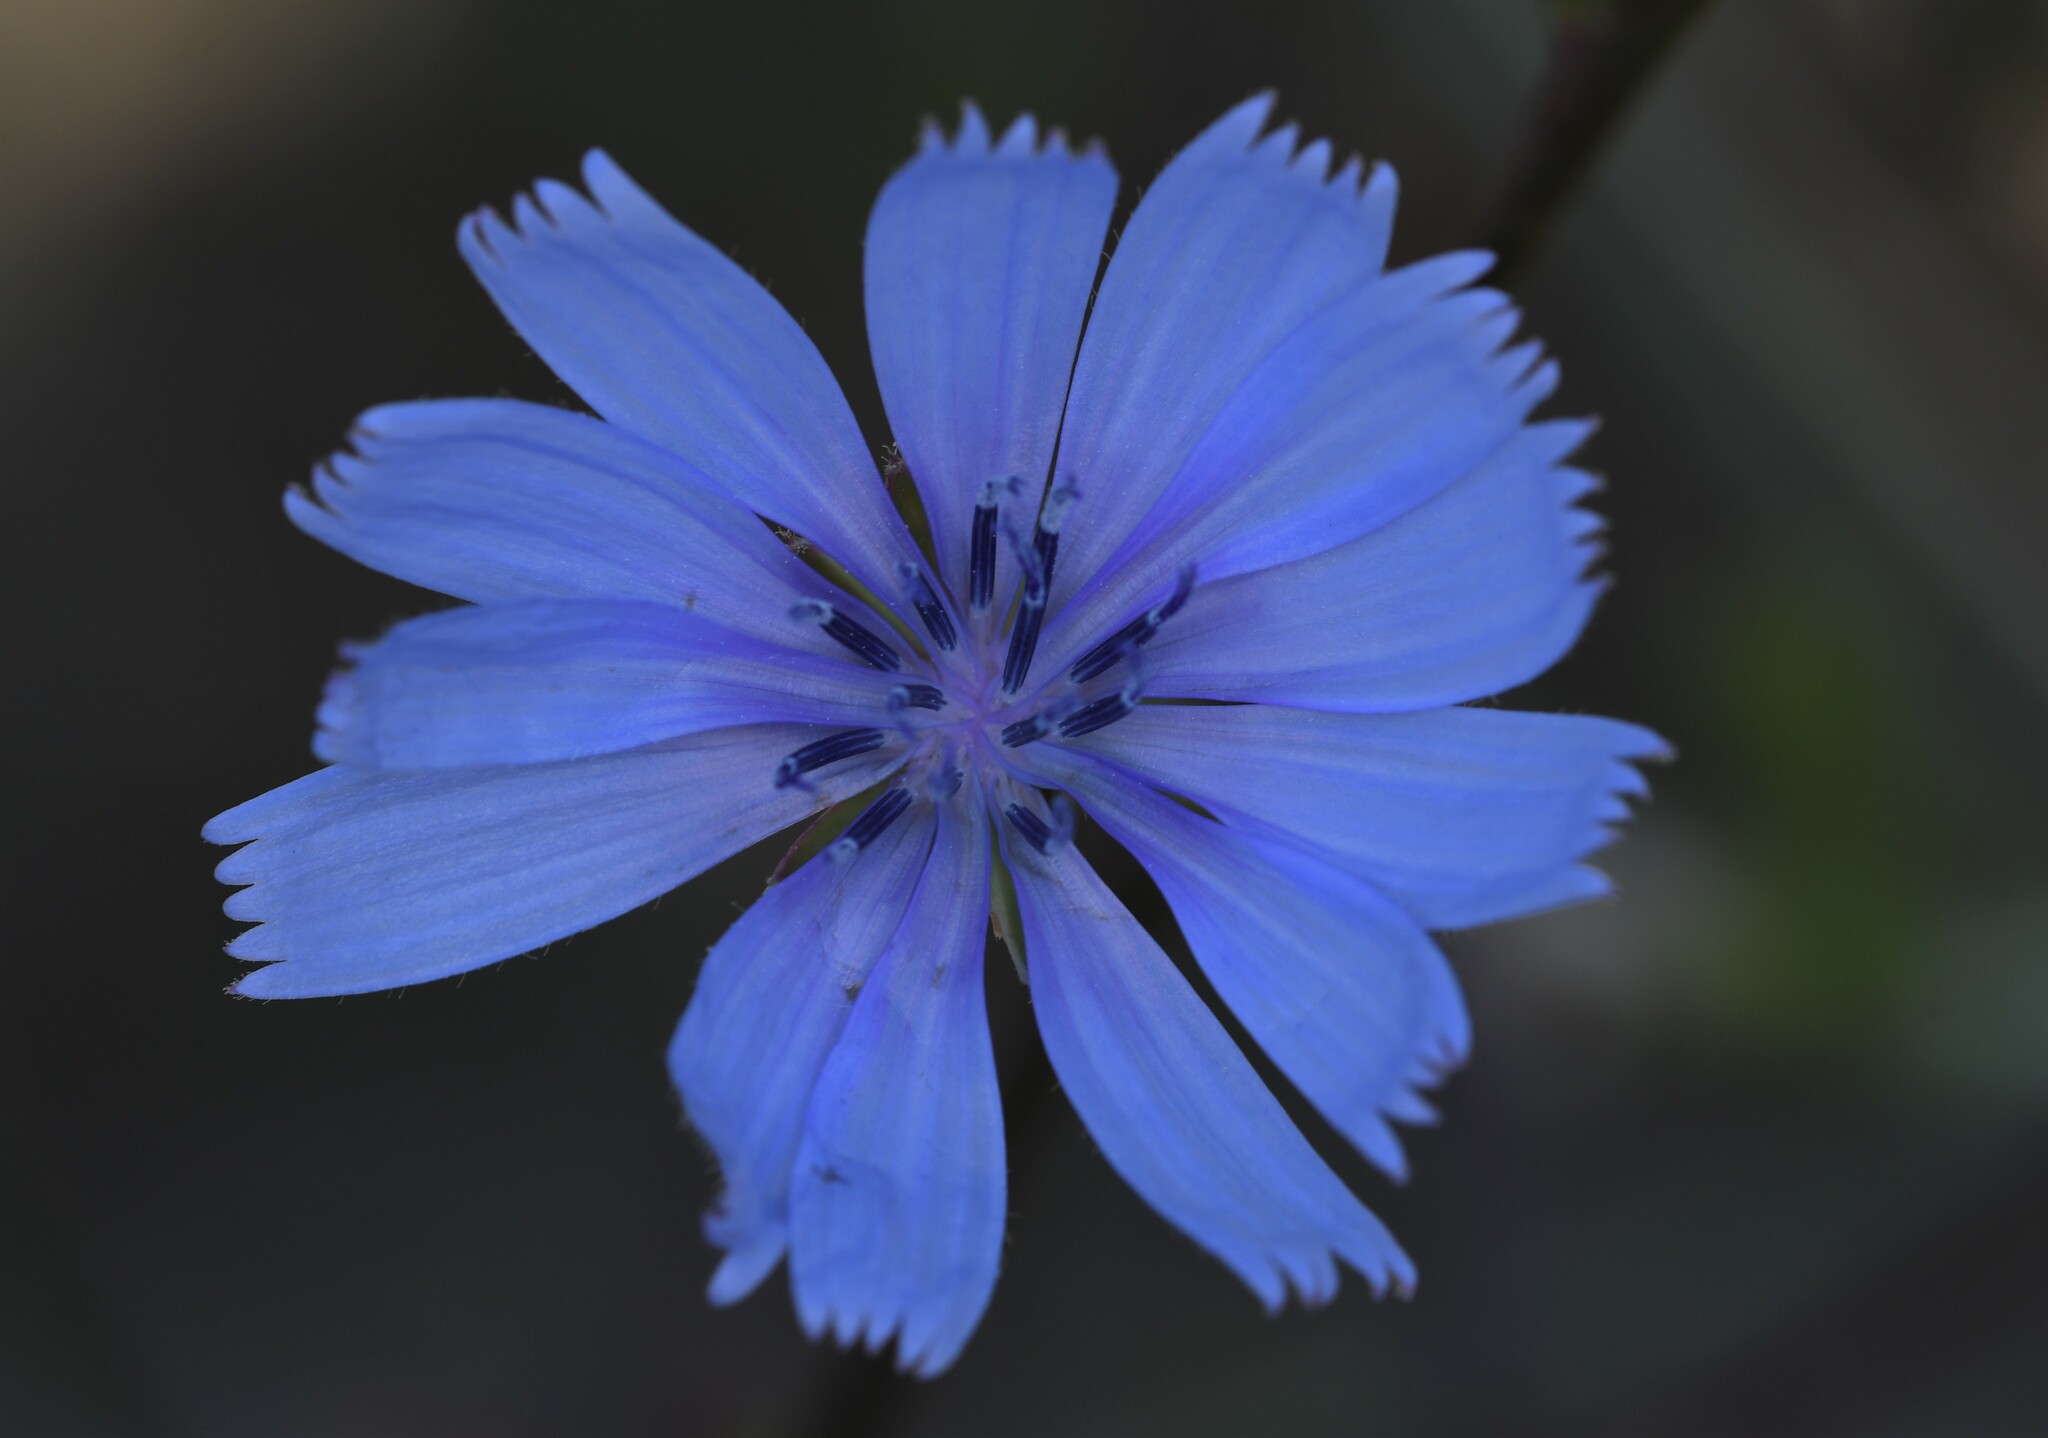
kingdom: Plantae
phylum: Tracheophyta
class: Magnoliopsida
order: Asterales
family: Asteraceae
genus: Cichorium
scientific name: Cichorium intybus
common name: Chicory
